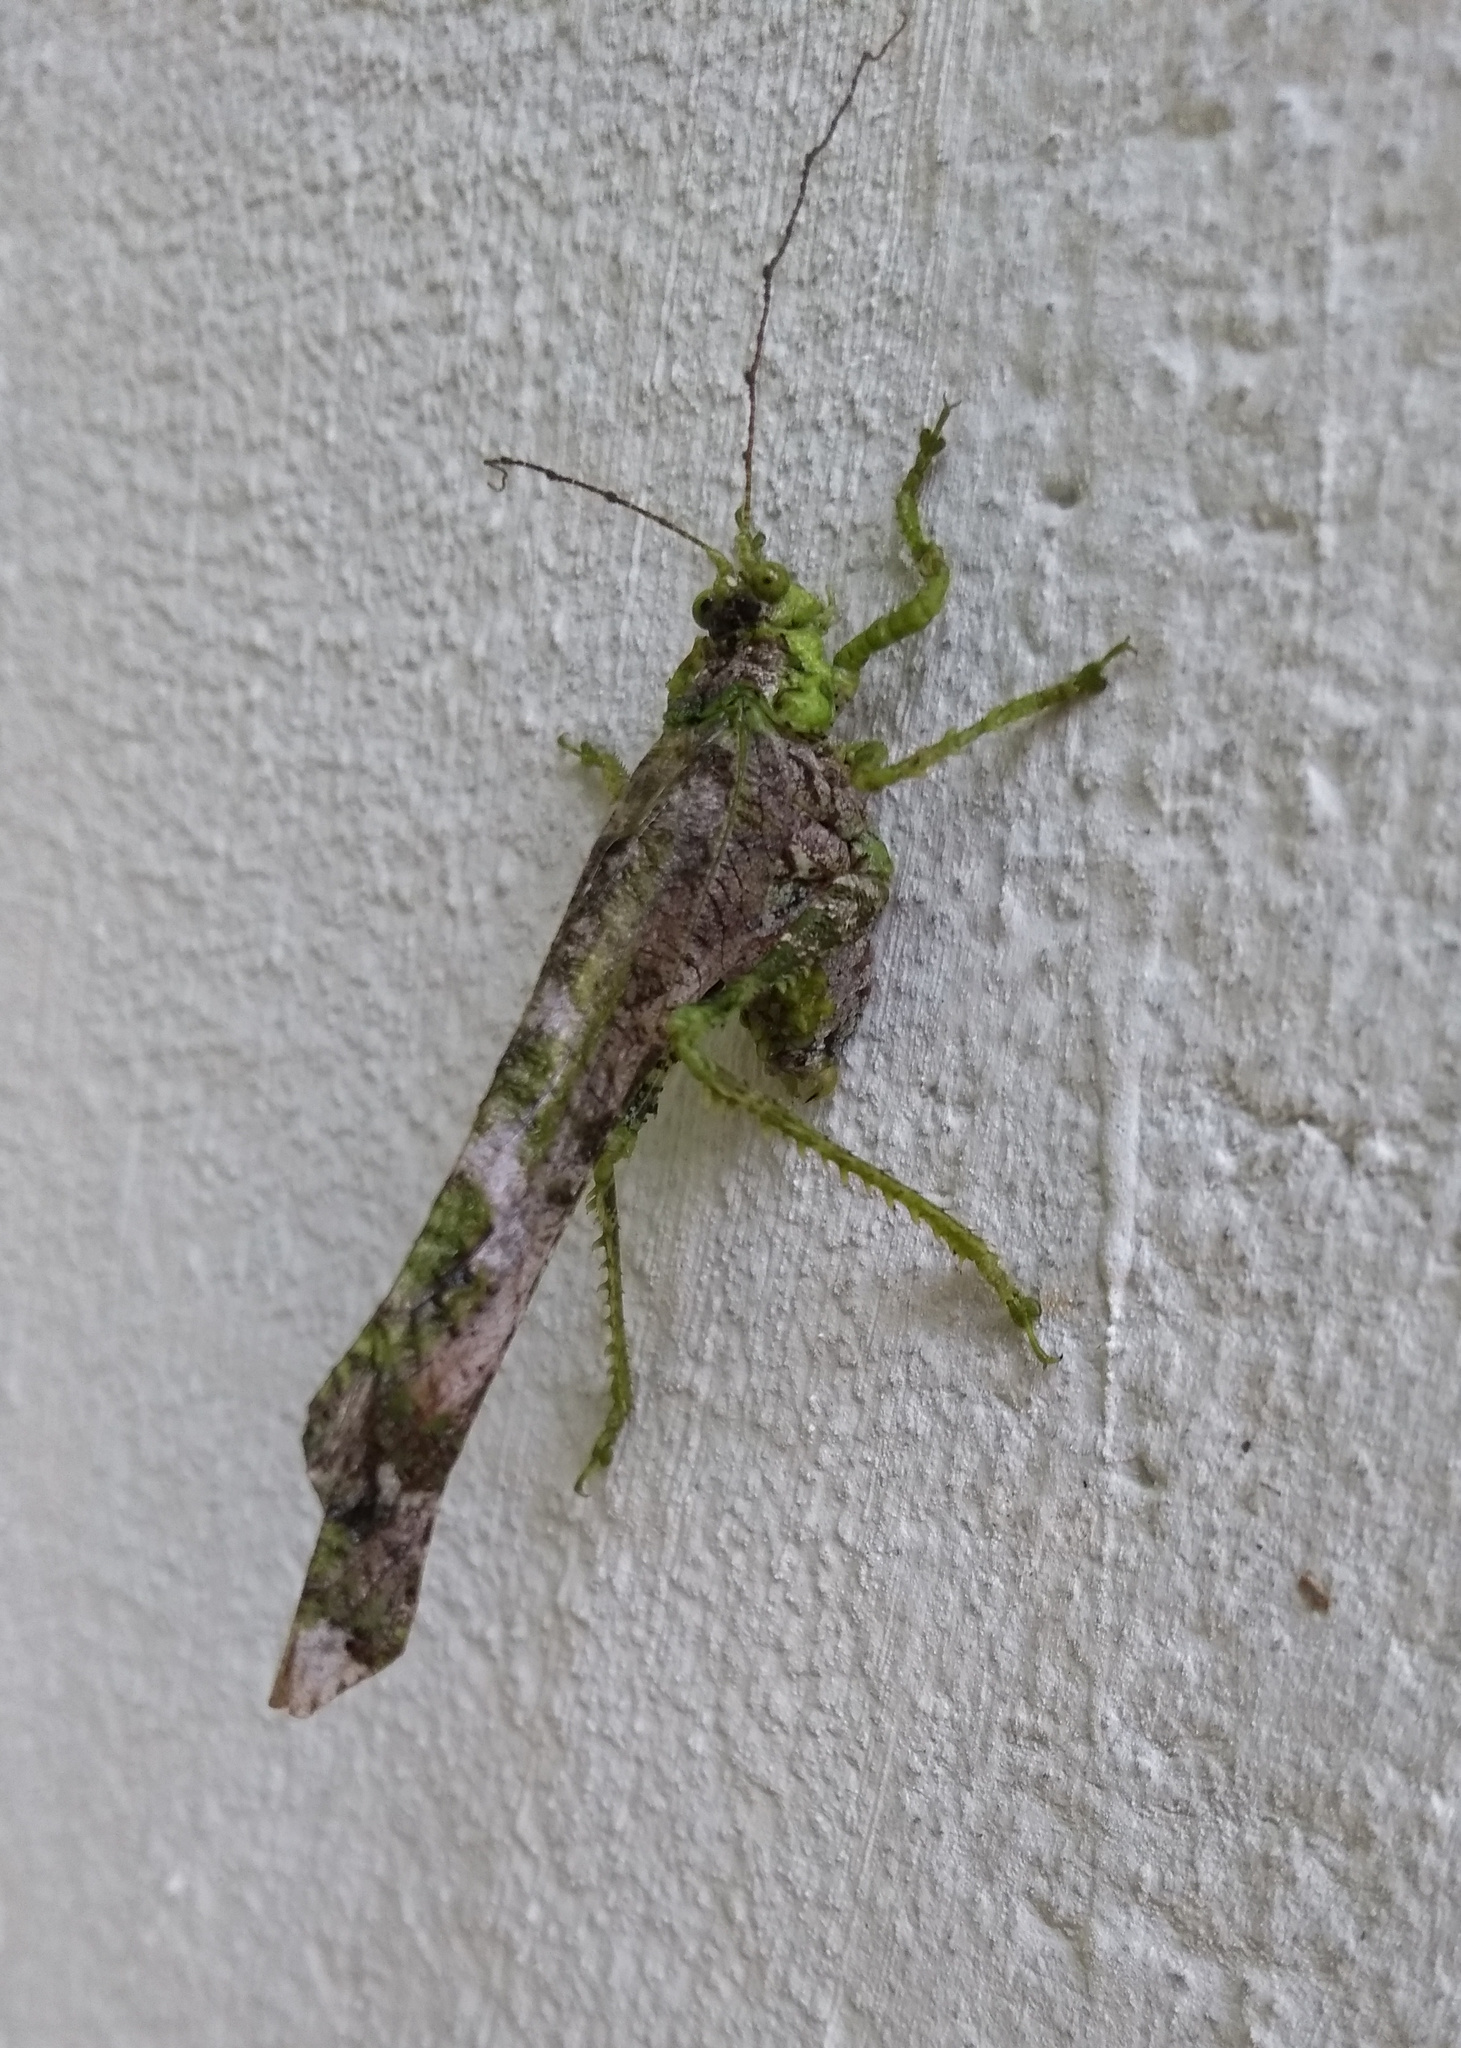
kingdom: Animalia
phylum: Arthropoda
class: Insecta
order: Orthoptera
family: Tettigoniidae
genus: Anaphidna
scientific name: Anaphidna verrucosa
